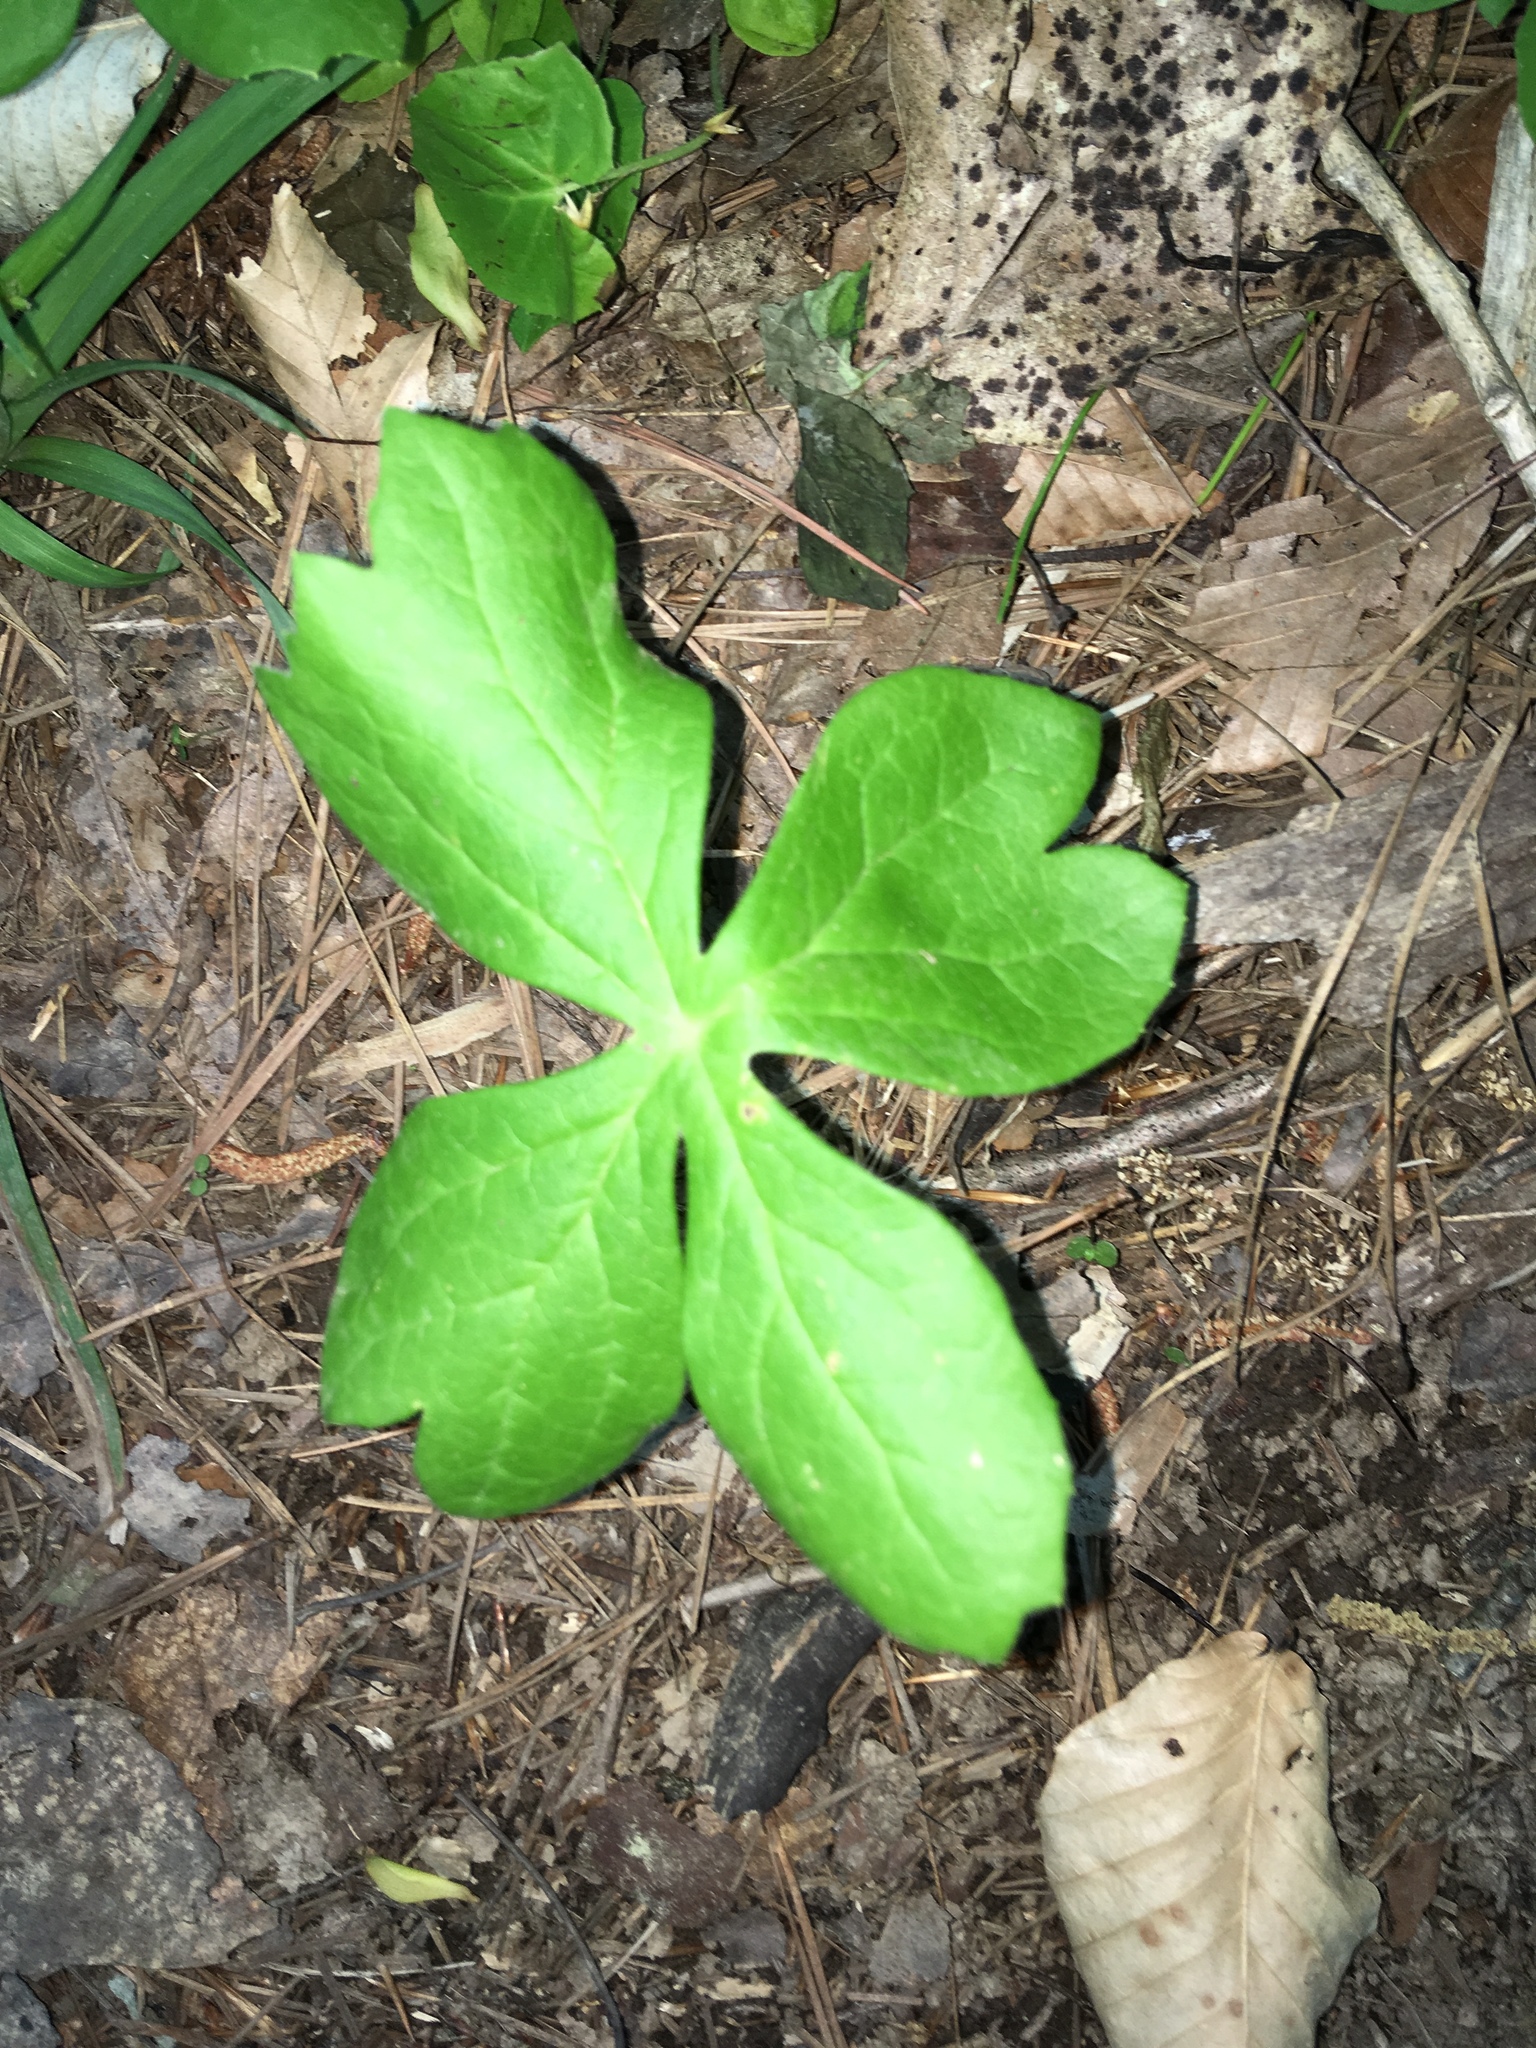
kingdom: Plantae
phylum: Tracheophyta
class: Magnoliopsida
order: Ranunculales
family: Berberidaceae
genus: Podophyllum
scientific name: Podophyllum peltatum
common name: Wild mandrake
